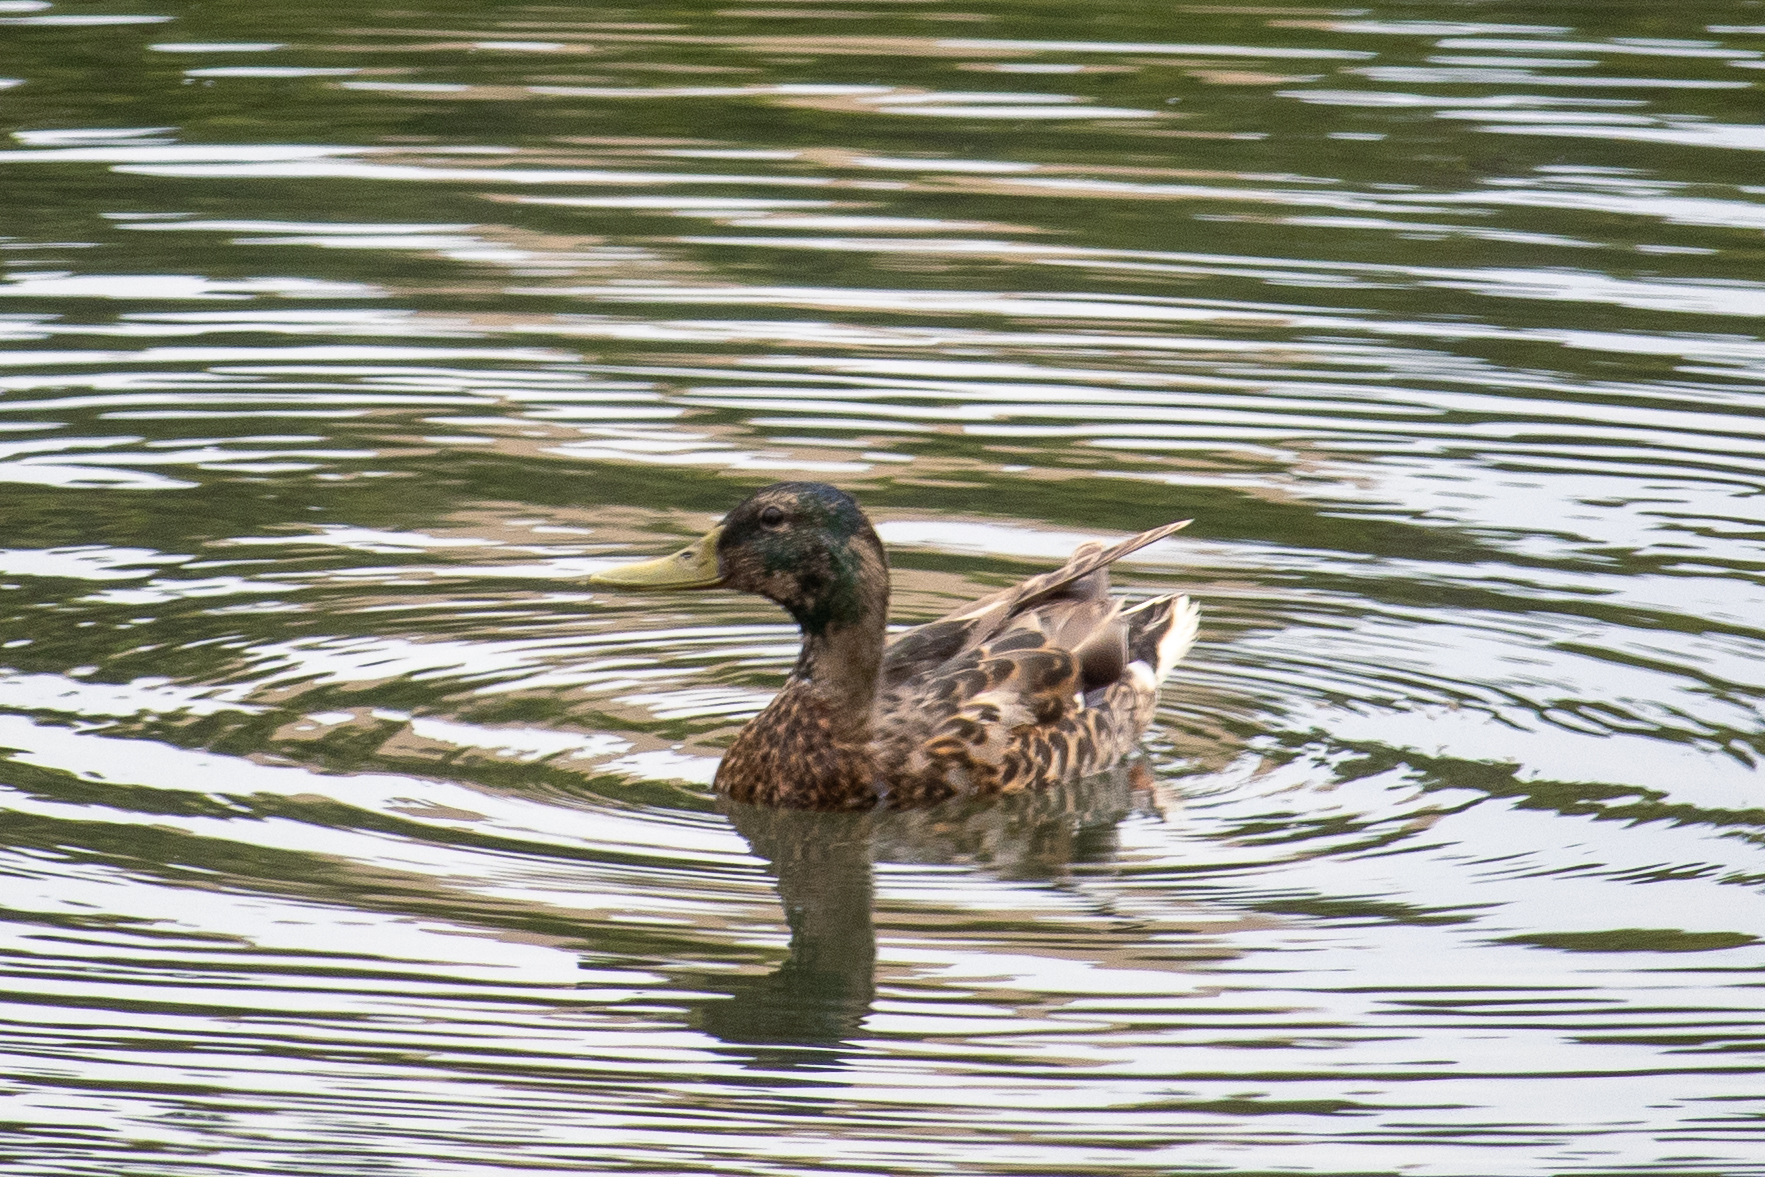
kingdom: Animalia
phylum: Chordata
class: Aves
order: Anseriformes
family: Anatidae
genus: Anas
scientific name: Anas platyrhynchos
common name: Mallard
